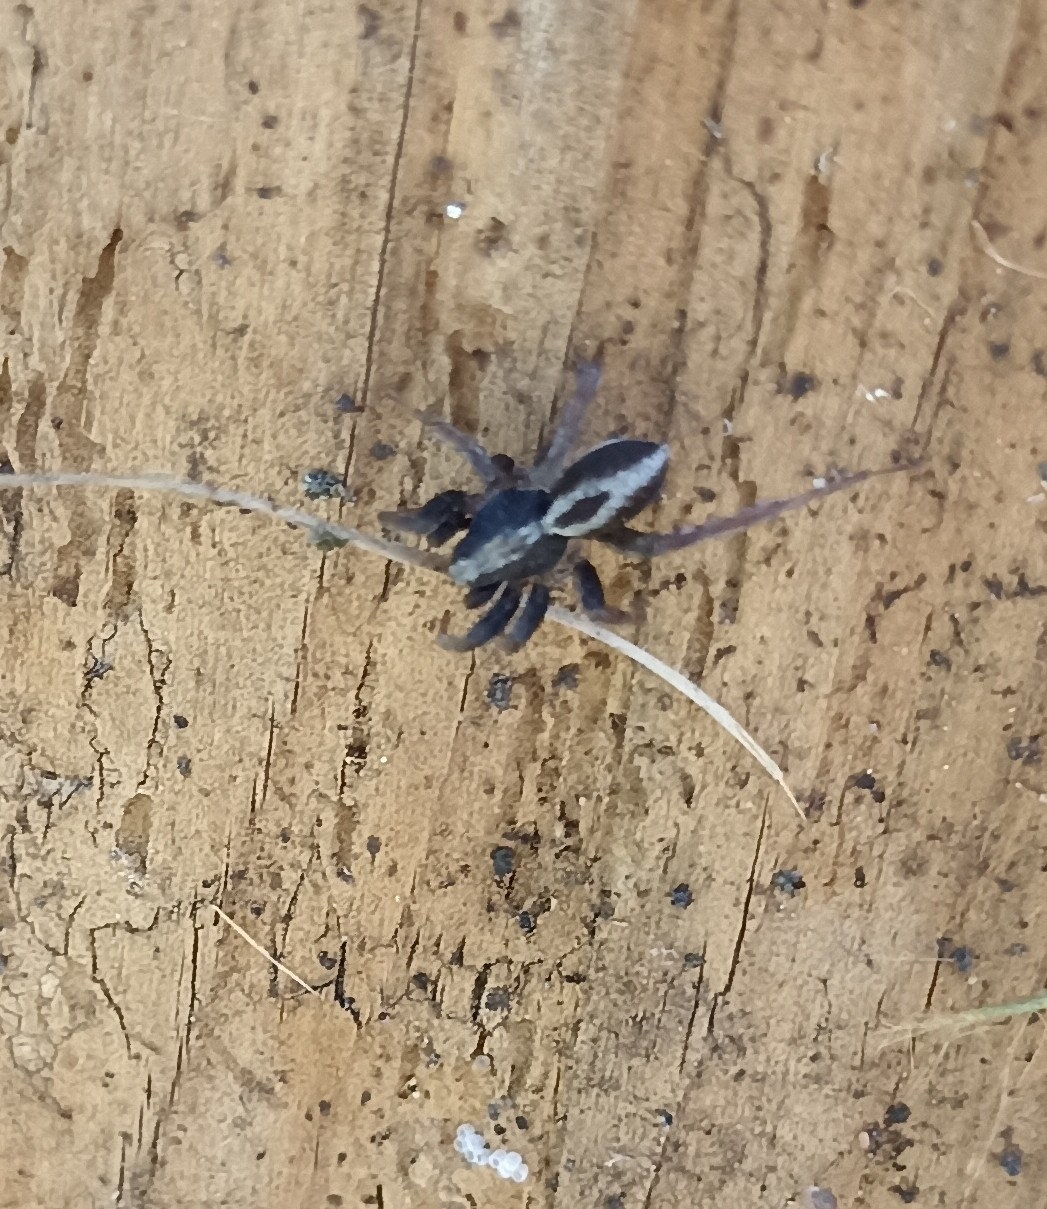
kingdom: Animalia
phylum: Arthropoda
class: Arachnida
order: Araneae
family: Lycosidae
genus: Alopecosa
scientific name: Alopecosa albofasciata
